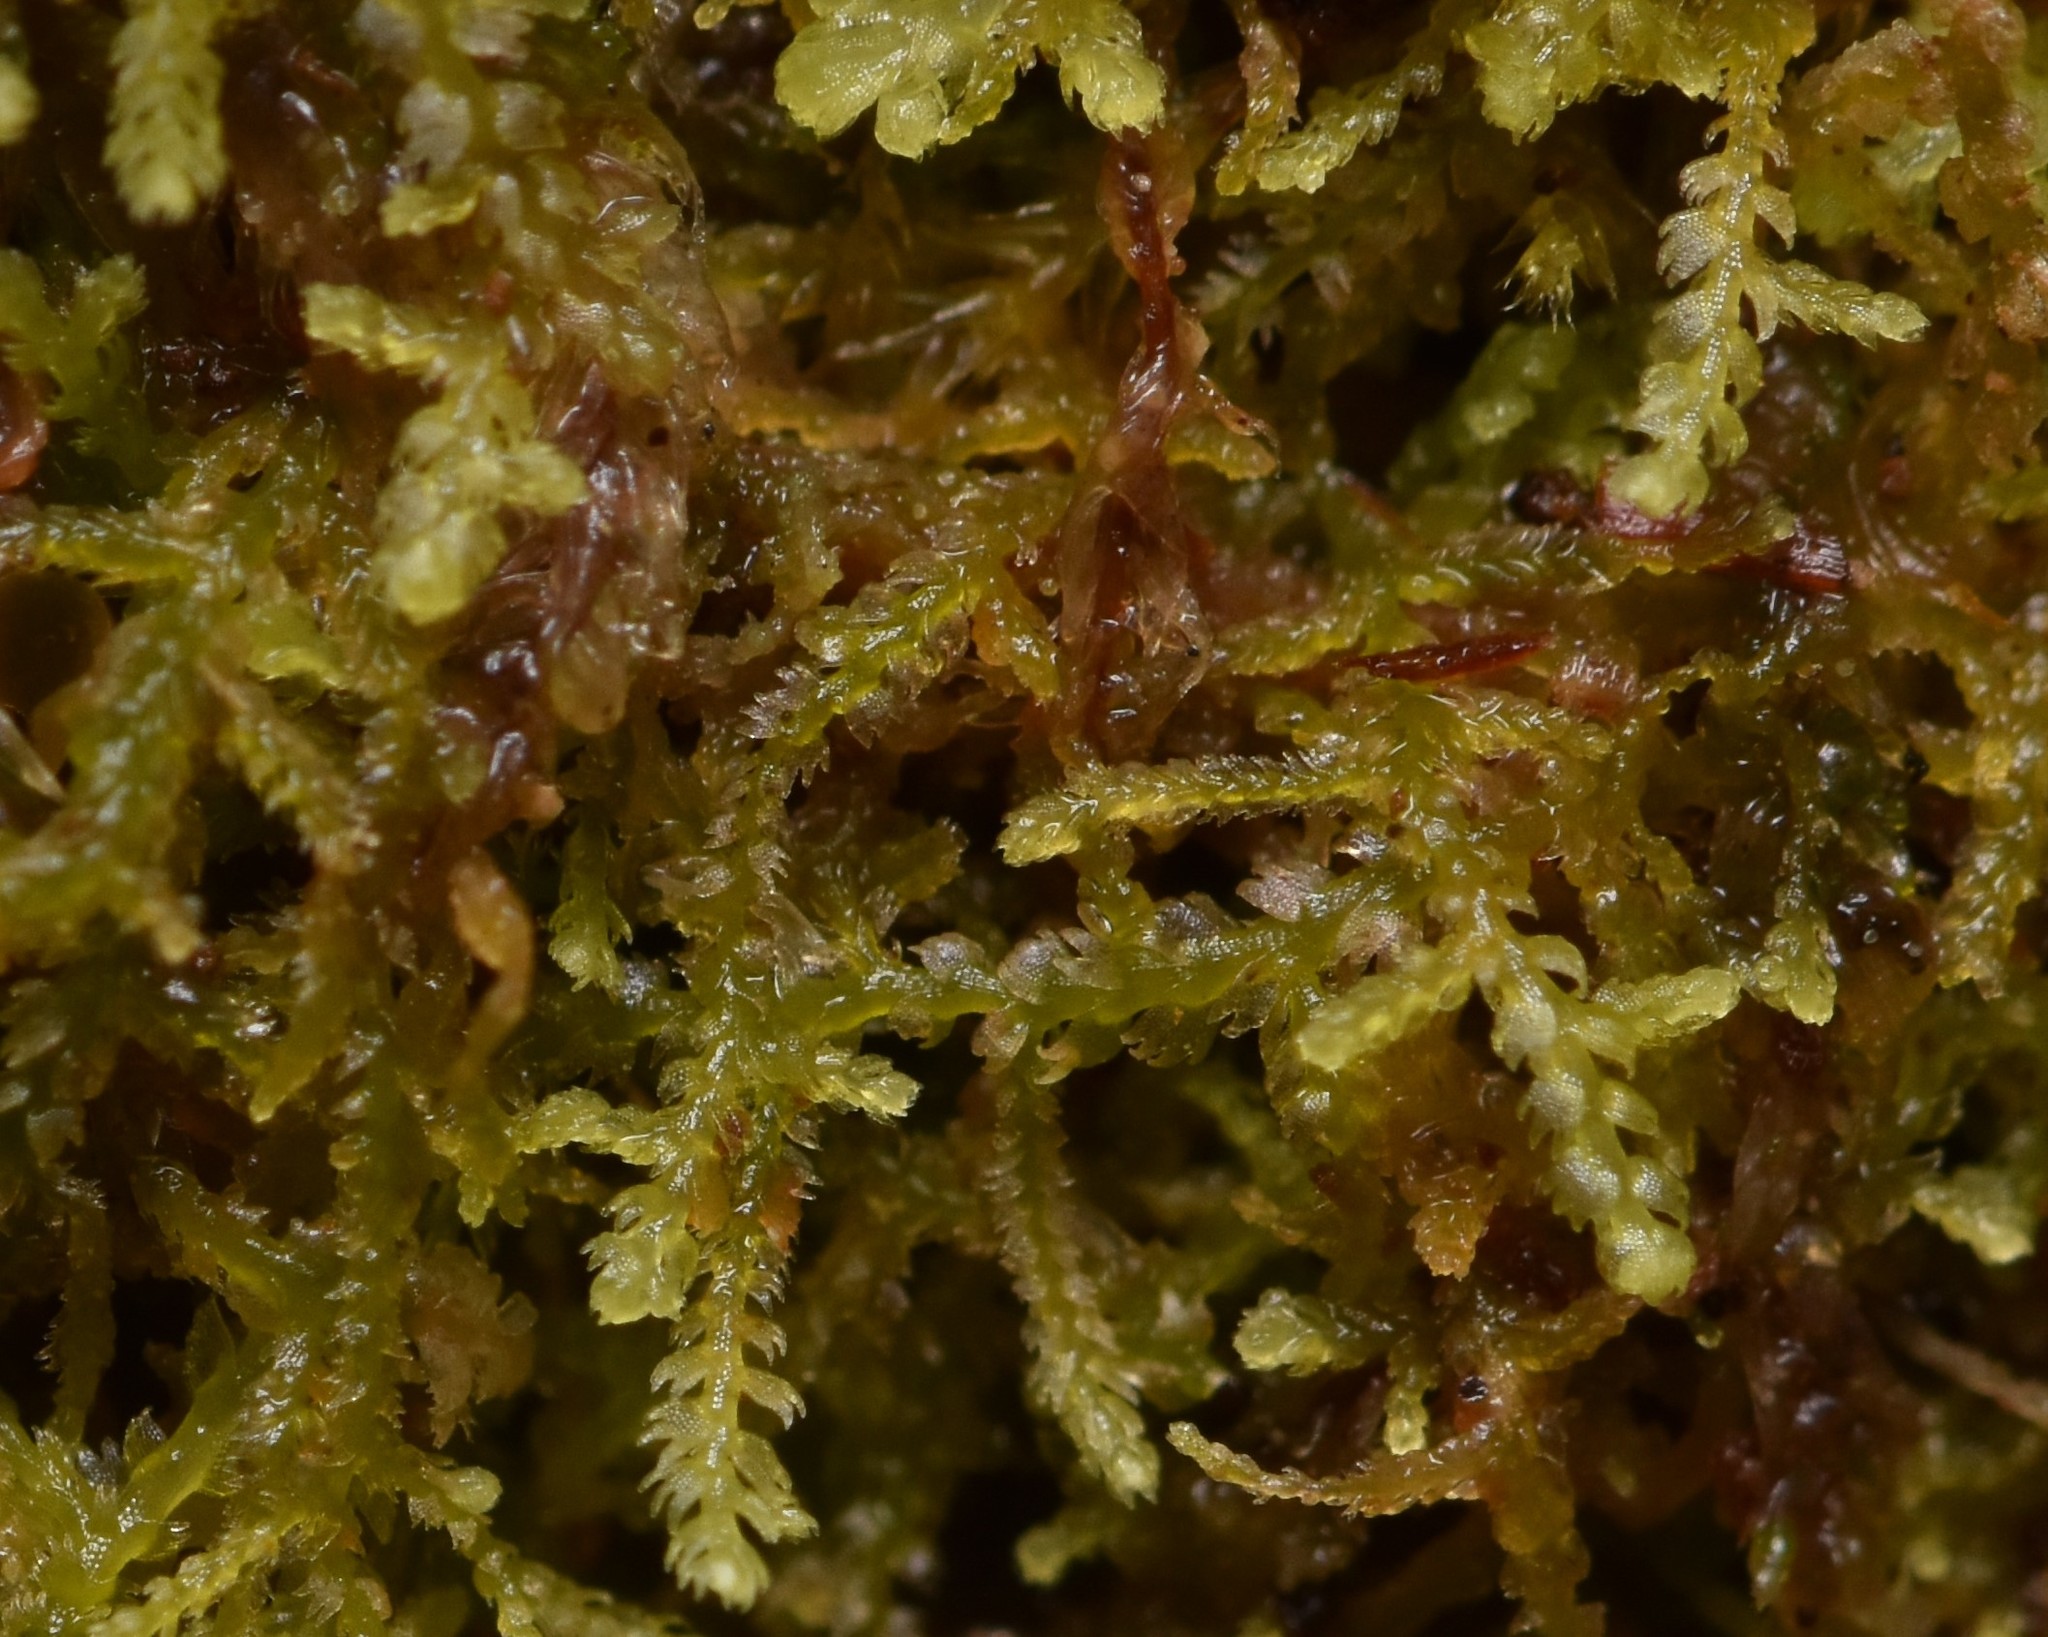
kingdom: Plantae
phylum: Marchantiophyta
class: Jungermanniopsida
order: Jungermanniales
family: Lepidoziaceae
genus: Lepidozia
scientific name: Lepidozia reptans
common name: Creeping fingerwort
